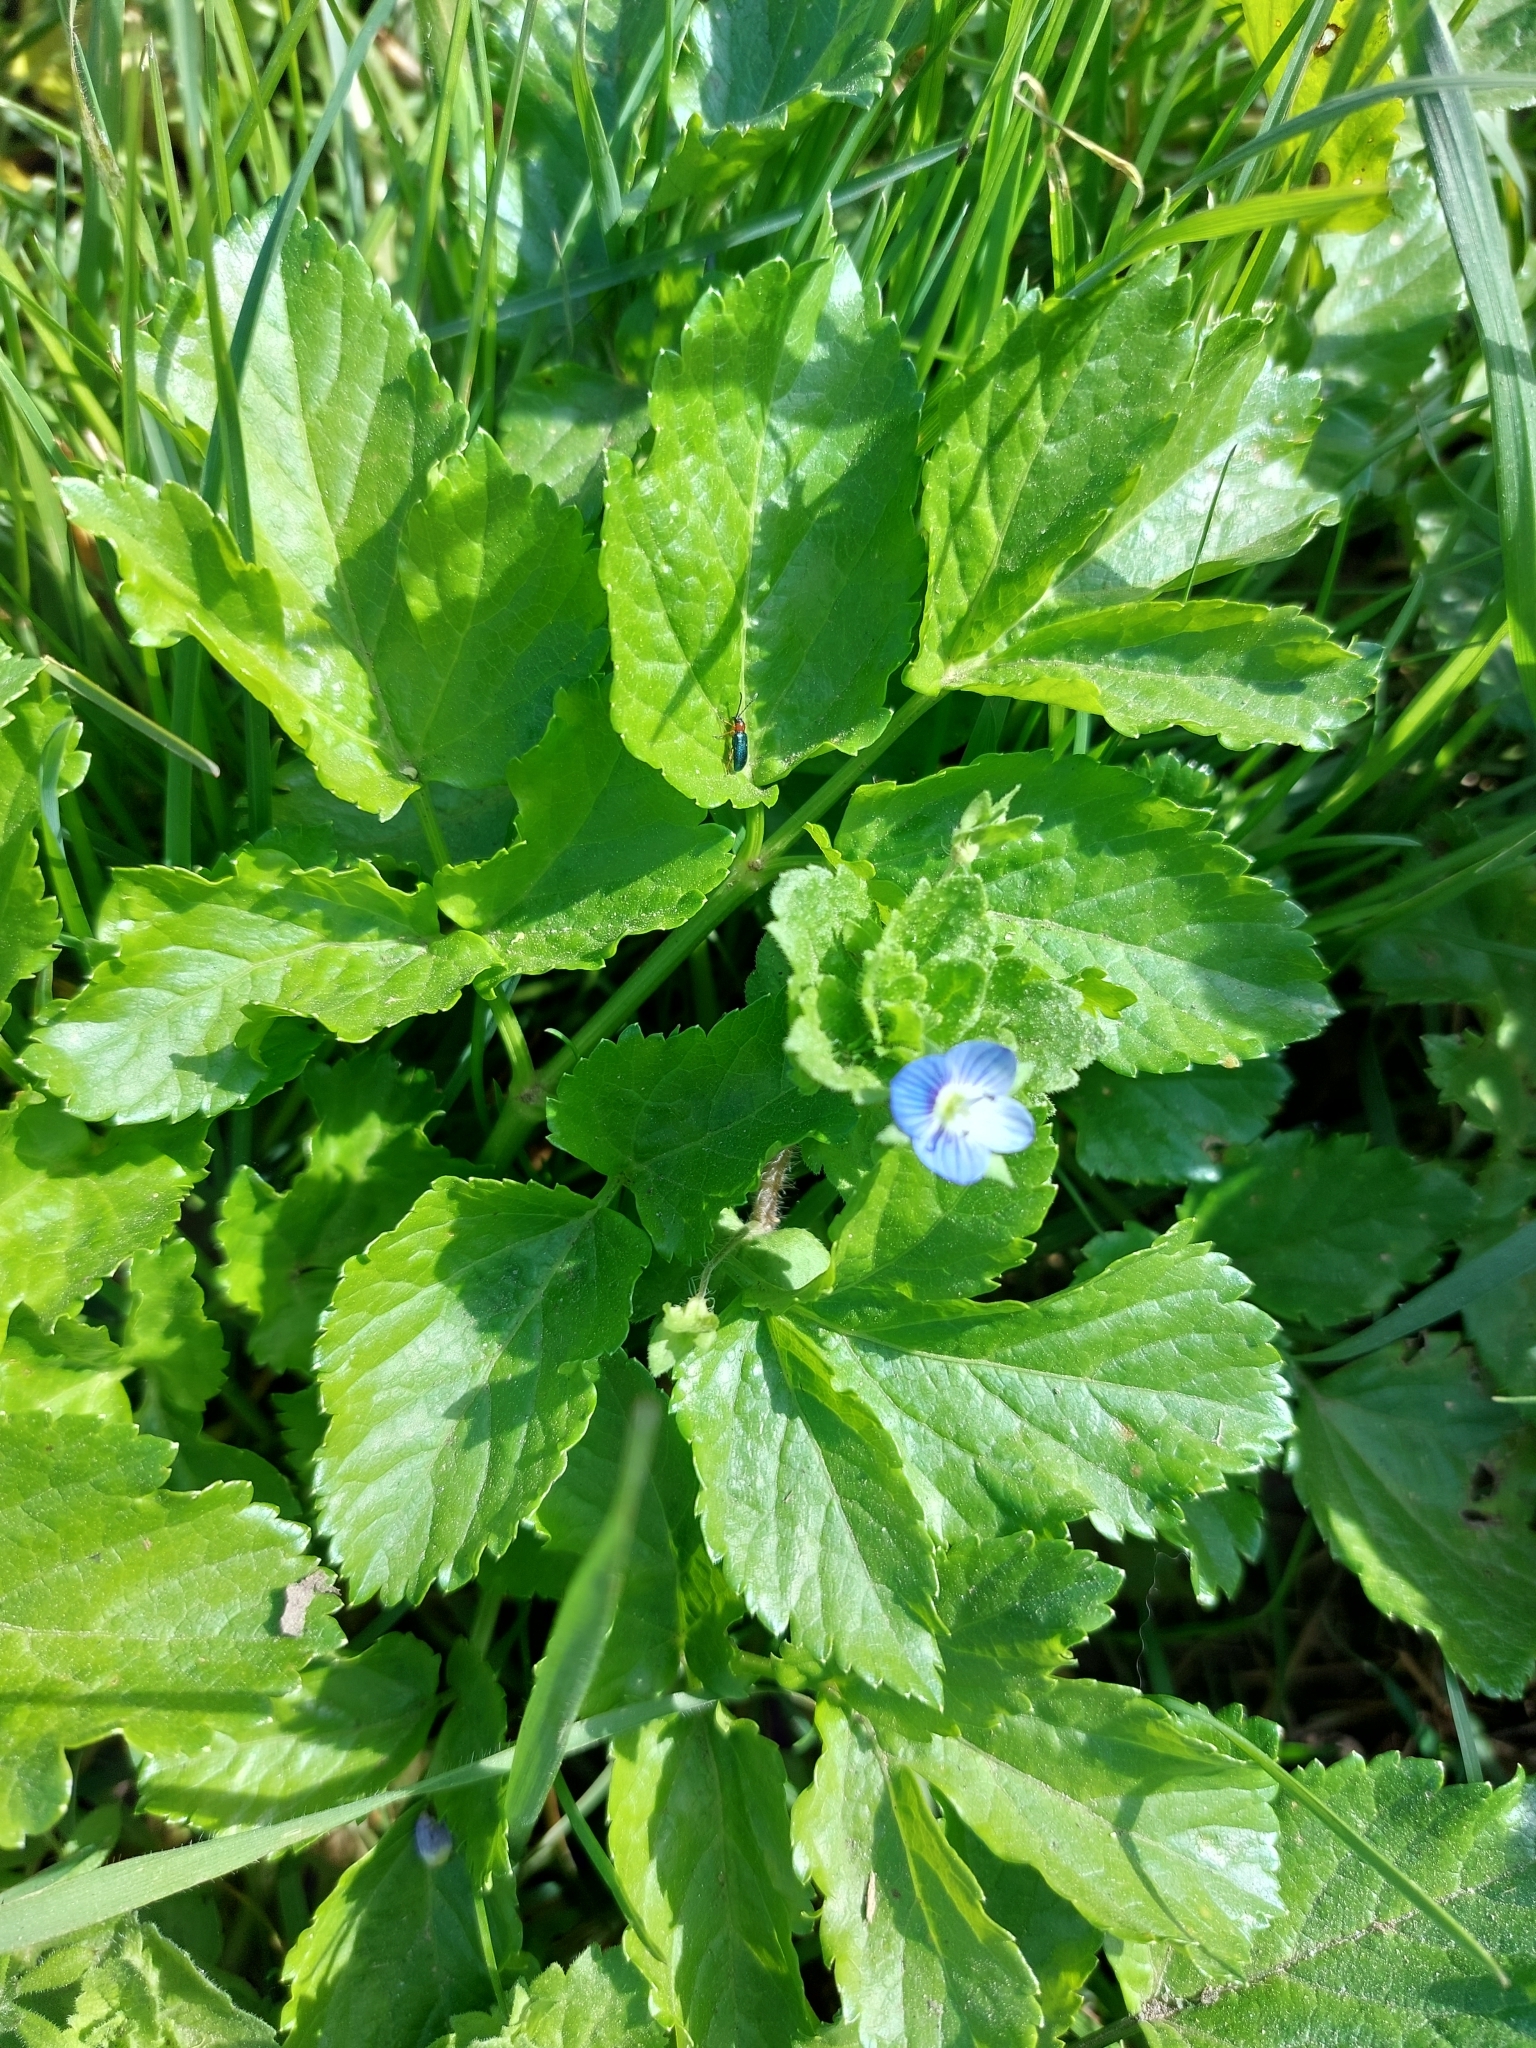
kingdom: Plantae
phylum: Tracheophyta
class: Magnoliopsida
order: Lamiales
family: Plantaginaceae
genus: Veronica
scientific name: Veronica persica
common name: Common field-speedwell
